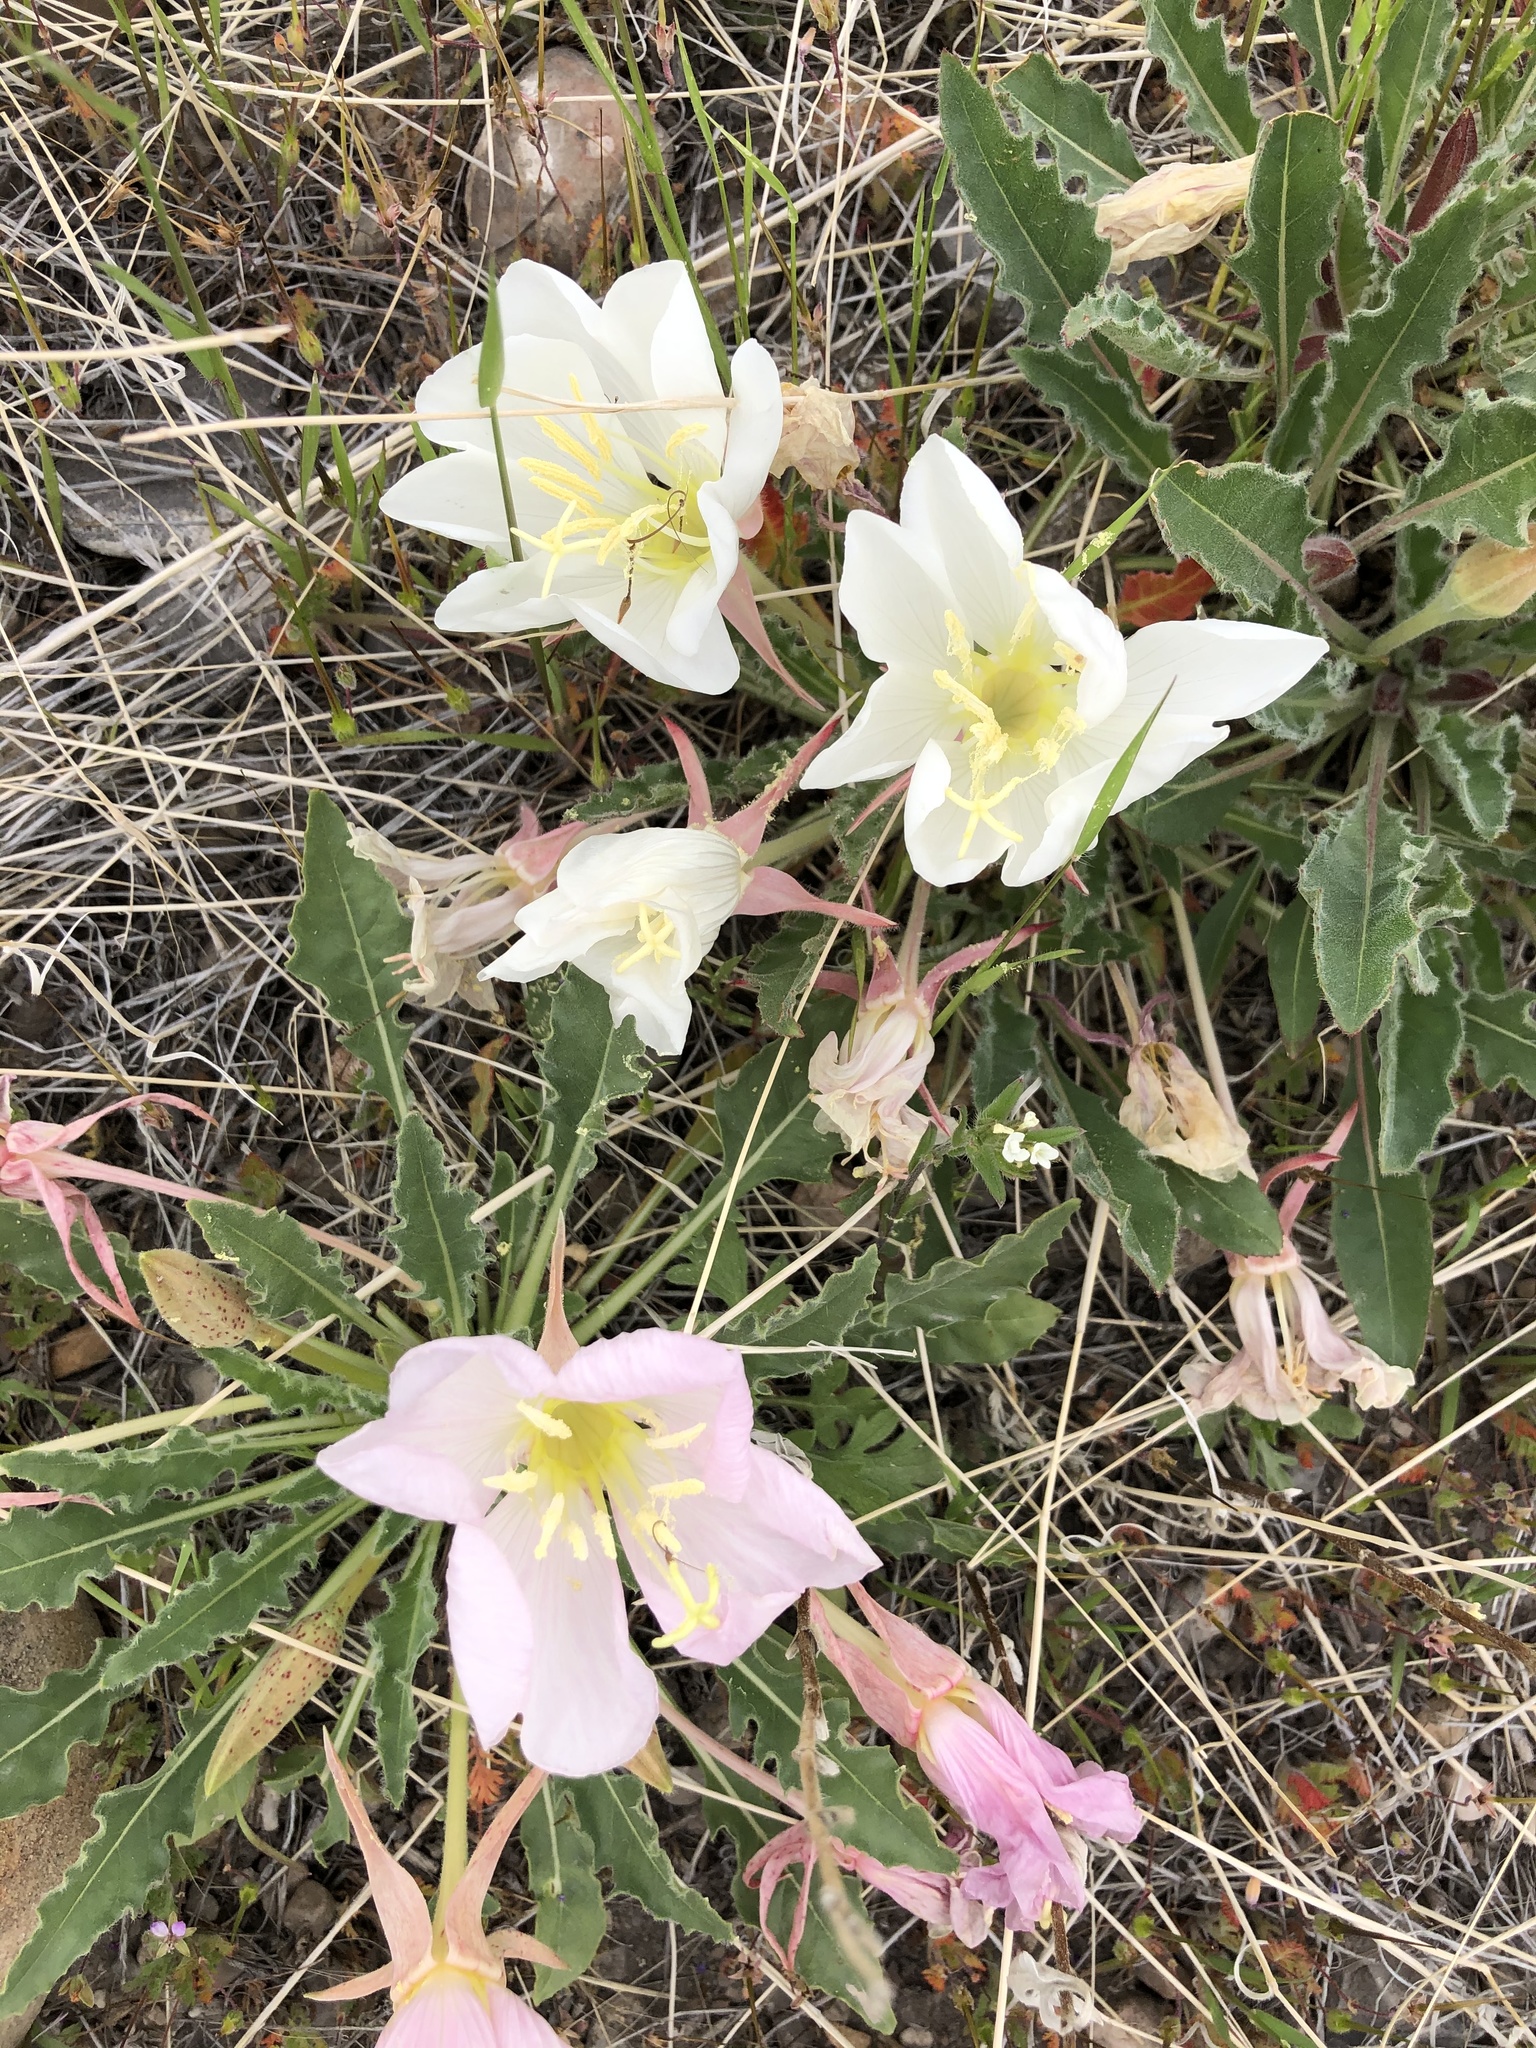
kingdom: Plantae
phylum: Tracheophyta
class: Magnoliopsida
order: Myrtales
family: Onagraceae
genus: Oenothera
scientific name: Oenothera cespitosa
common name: Tufted evening-primrose
